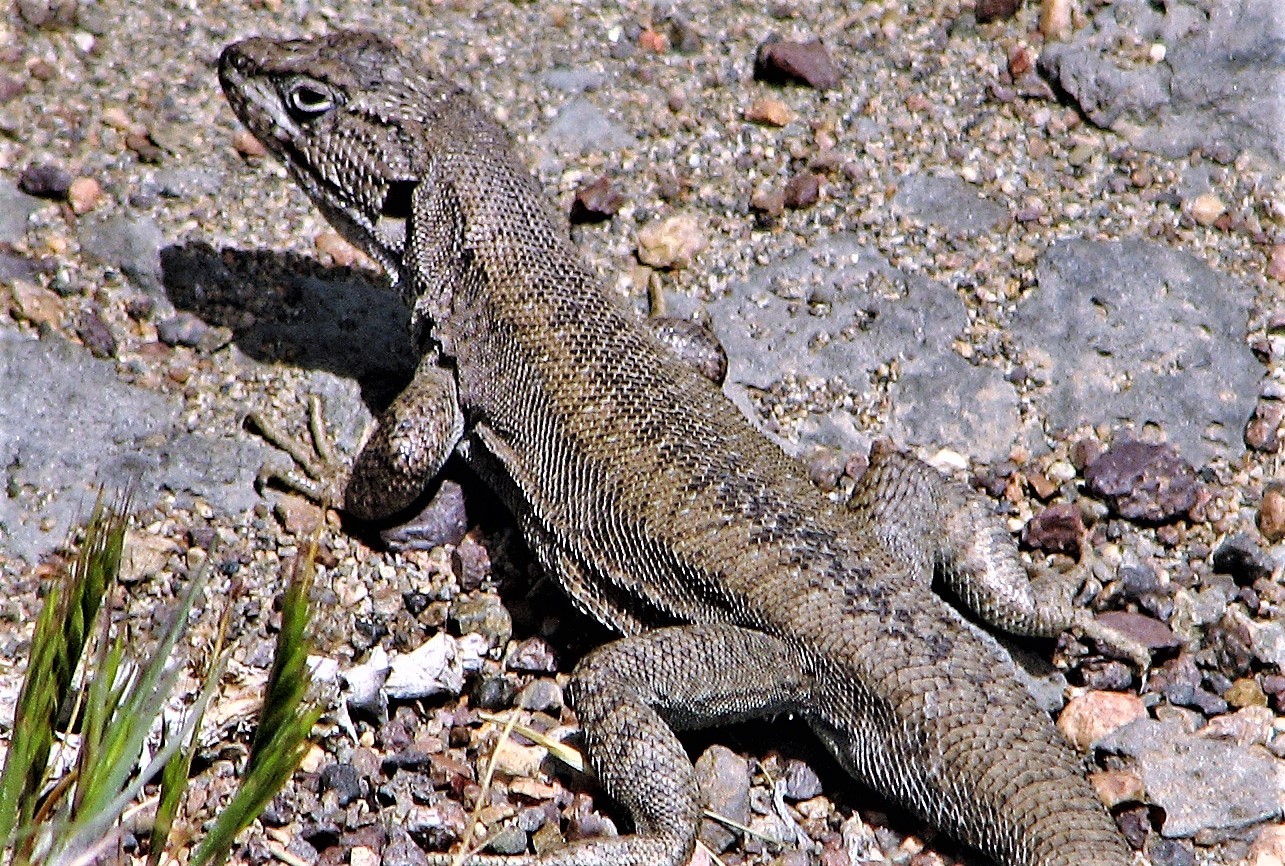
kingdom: Animalia
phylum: Chordata
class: Squamata
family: Liolaemidae
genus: Liolaemus
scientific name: Liolaemus elongatus
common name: Elongate tree iguana
